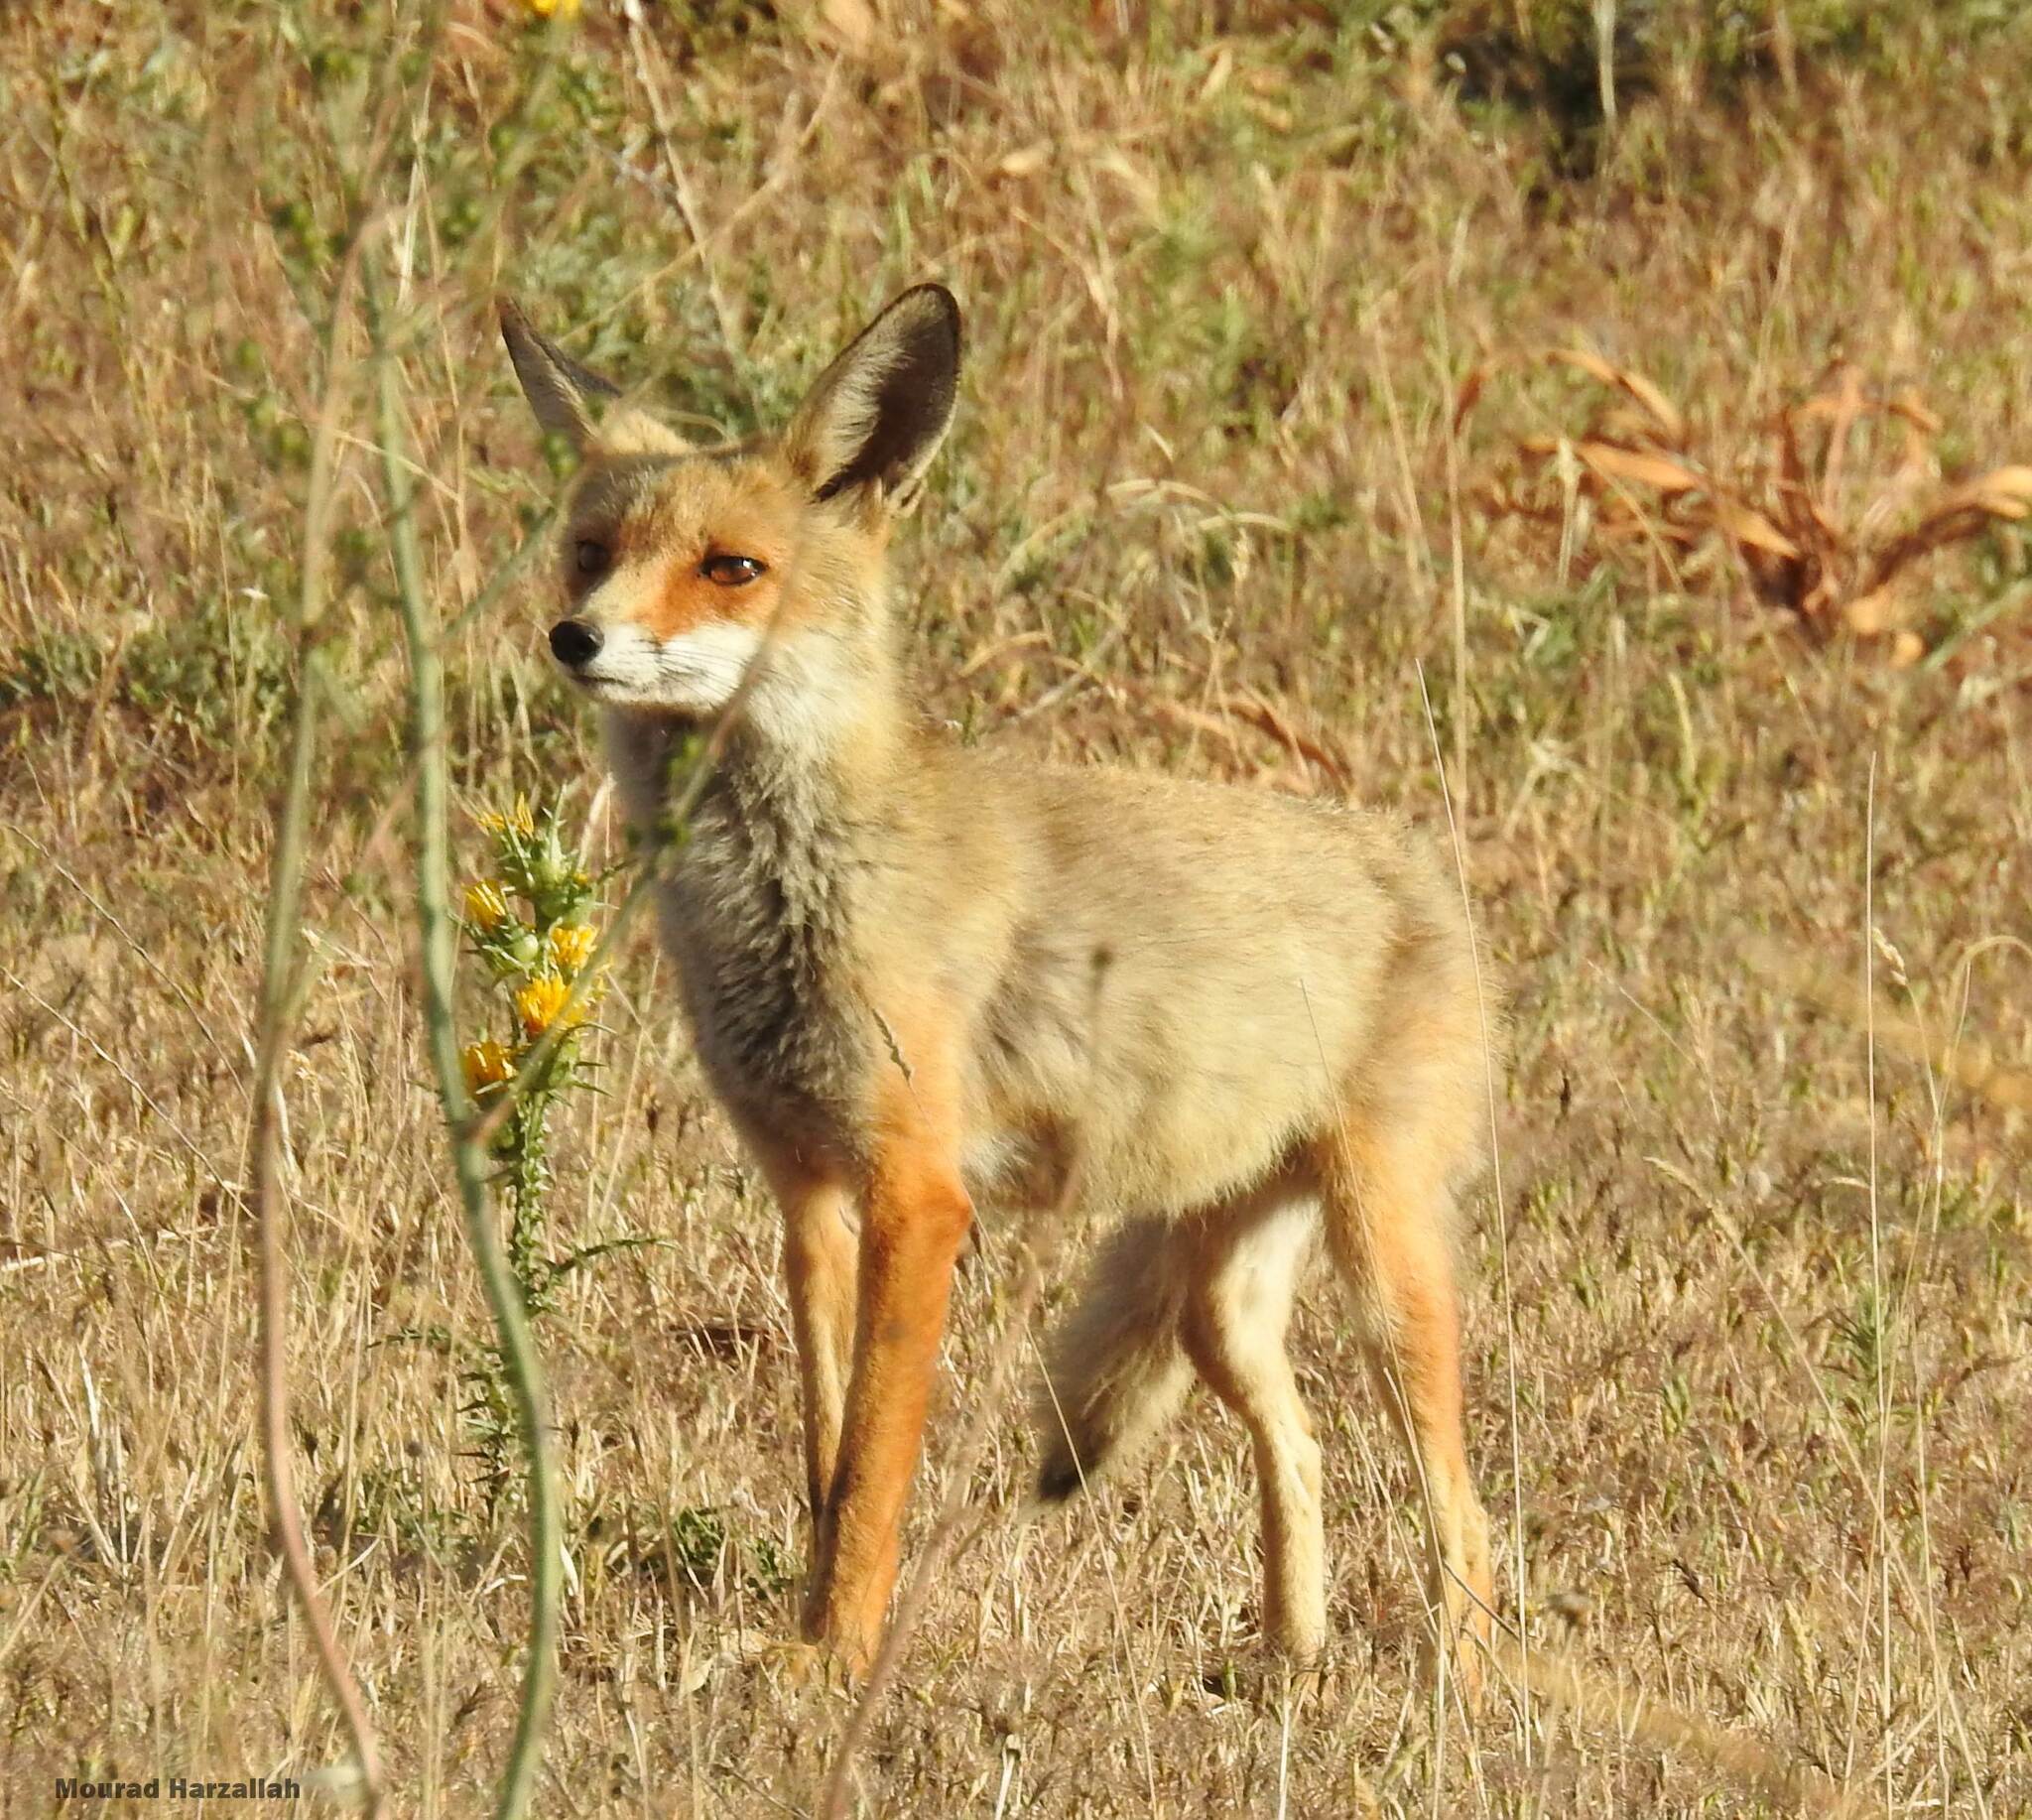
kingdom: Animalia
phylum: Chordata
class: Mammalia
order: Carnivora
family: Canidae
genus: Vulpes
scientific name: Vulpes vulpes
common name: Red fox
